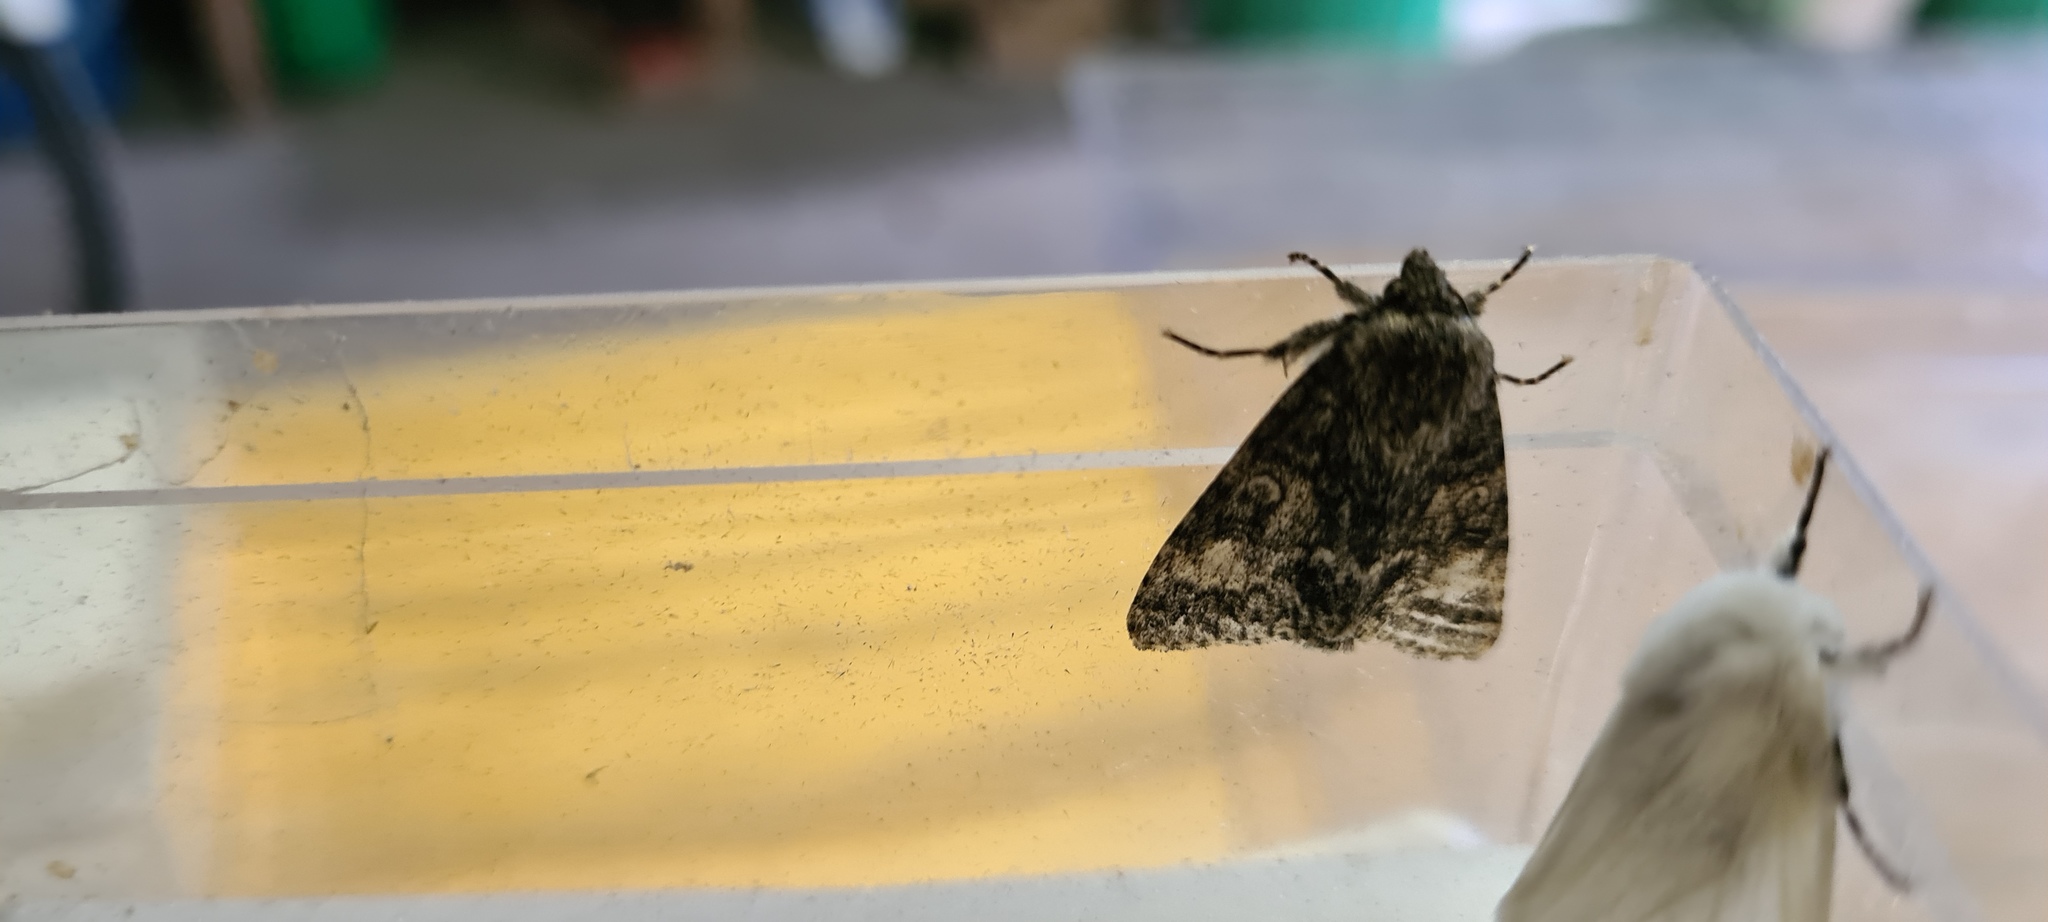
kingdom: Animalia
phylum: Arthropoda
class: Insecta
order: Lepidoptera
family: Noctuidae
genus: Acronicta
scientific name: Acronicta megacephala
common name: Poplar grey
